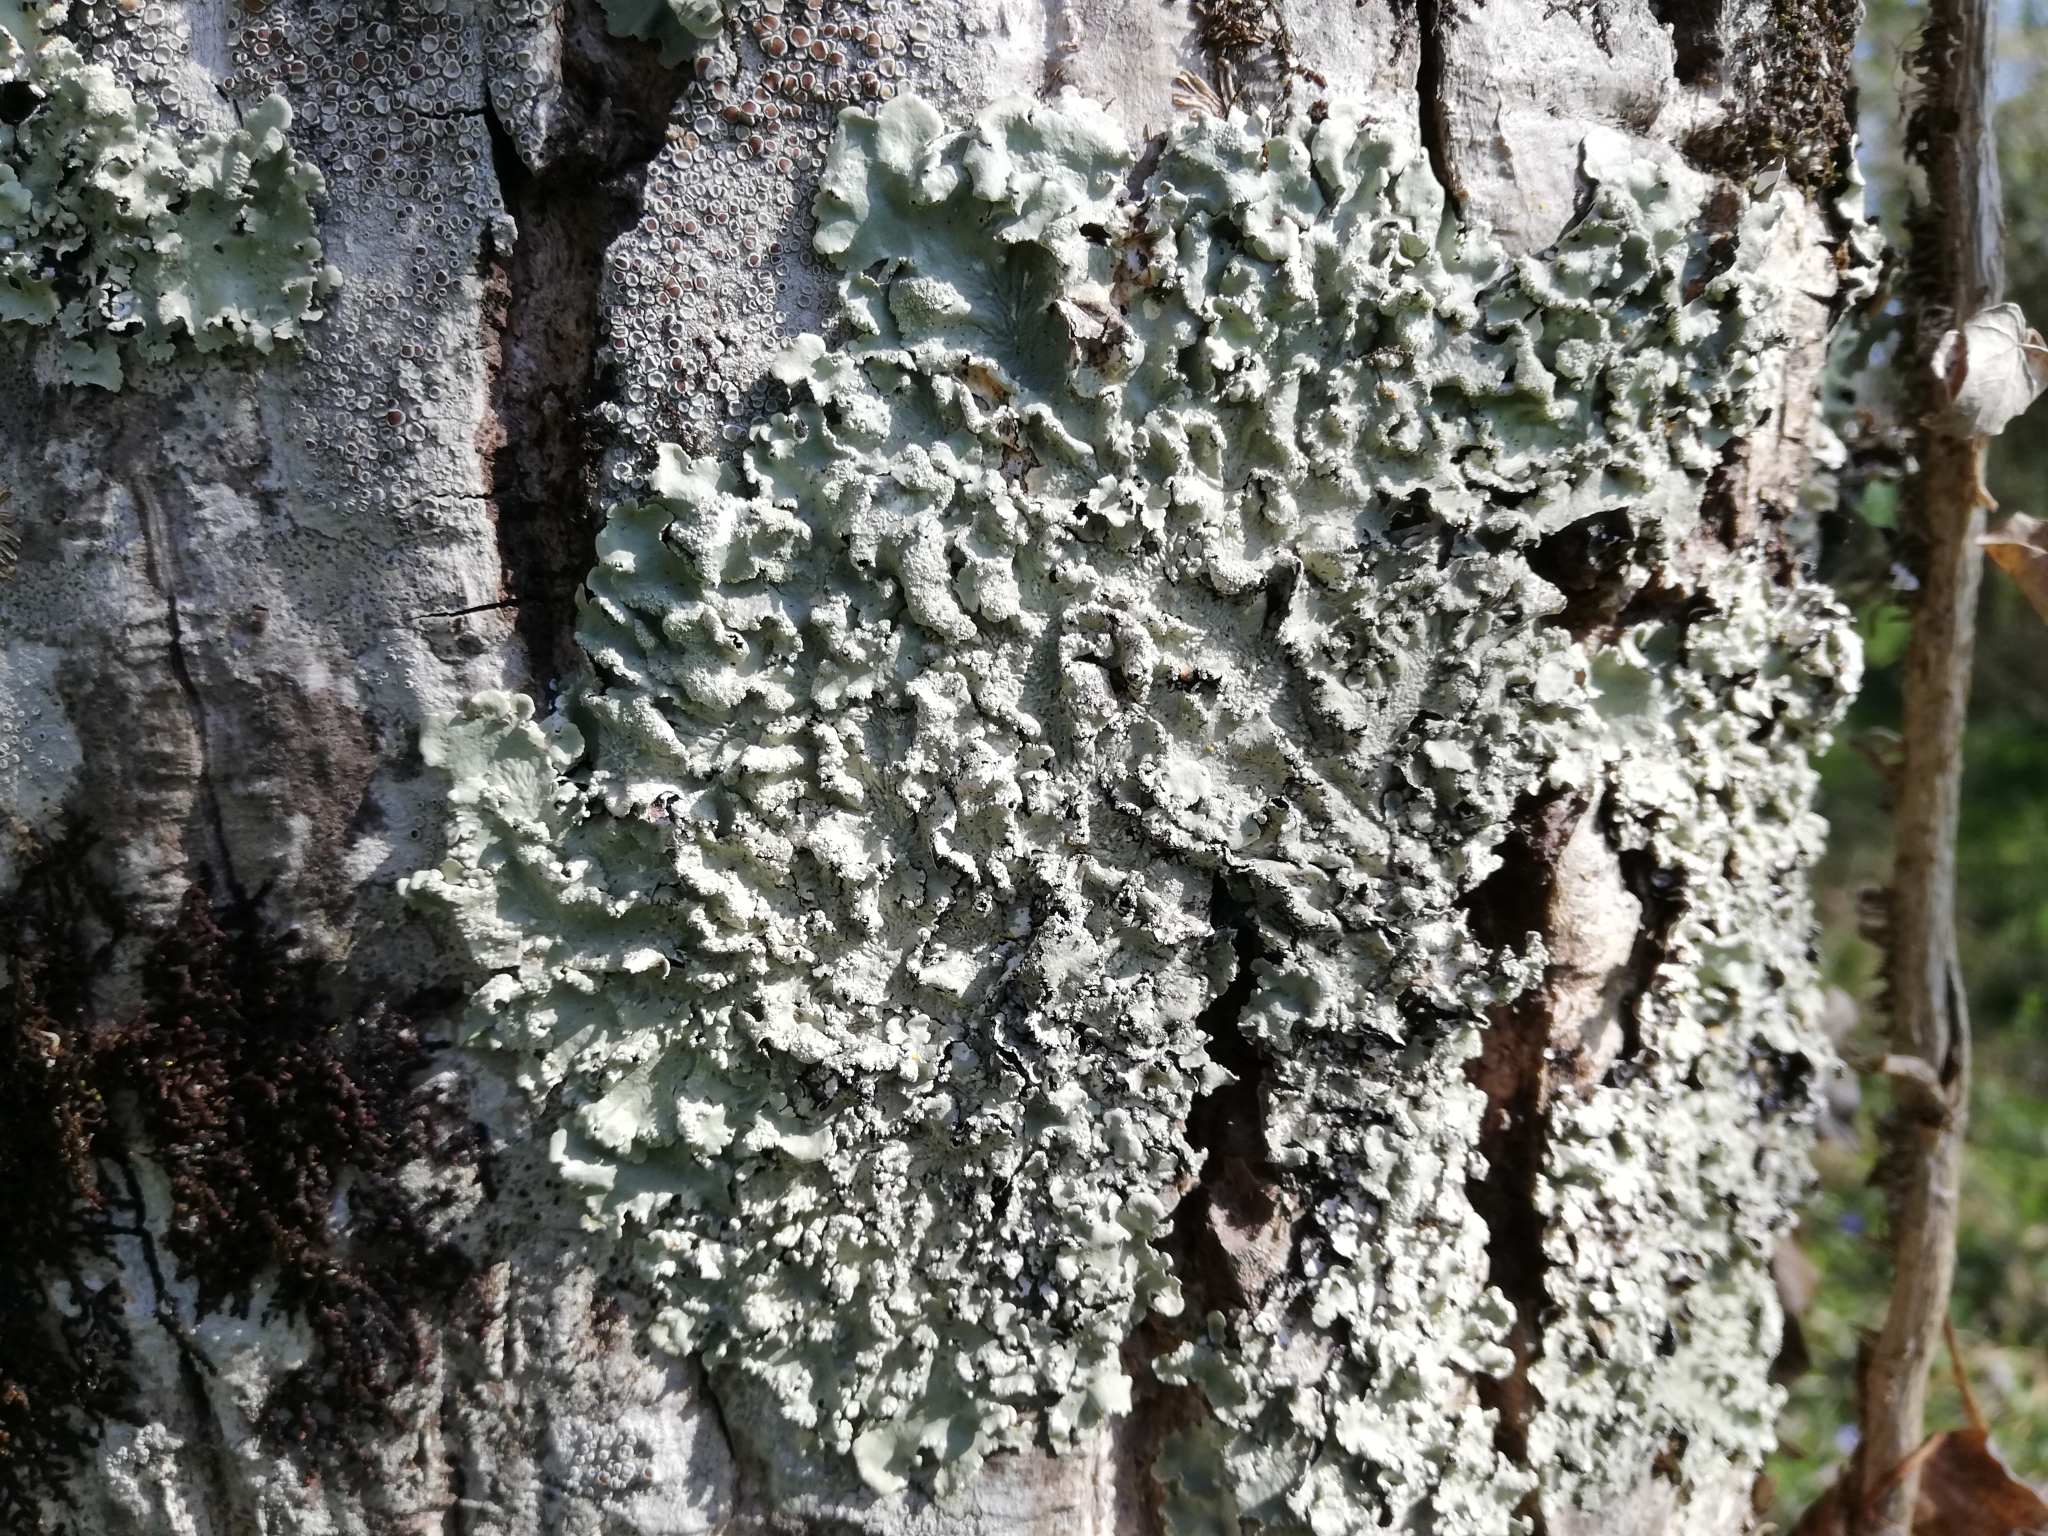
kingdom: Fungi
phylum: Ascomycota
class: Lecanoromycetes
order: Lecanorales
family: Parmeliaceae
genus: Flavoparmelia
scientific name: Flavoparmelia caperata
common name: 40-mile per hour lichen
